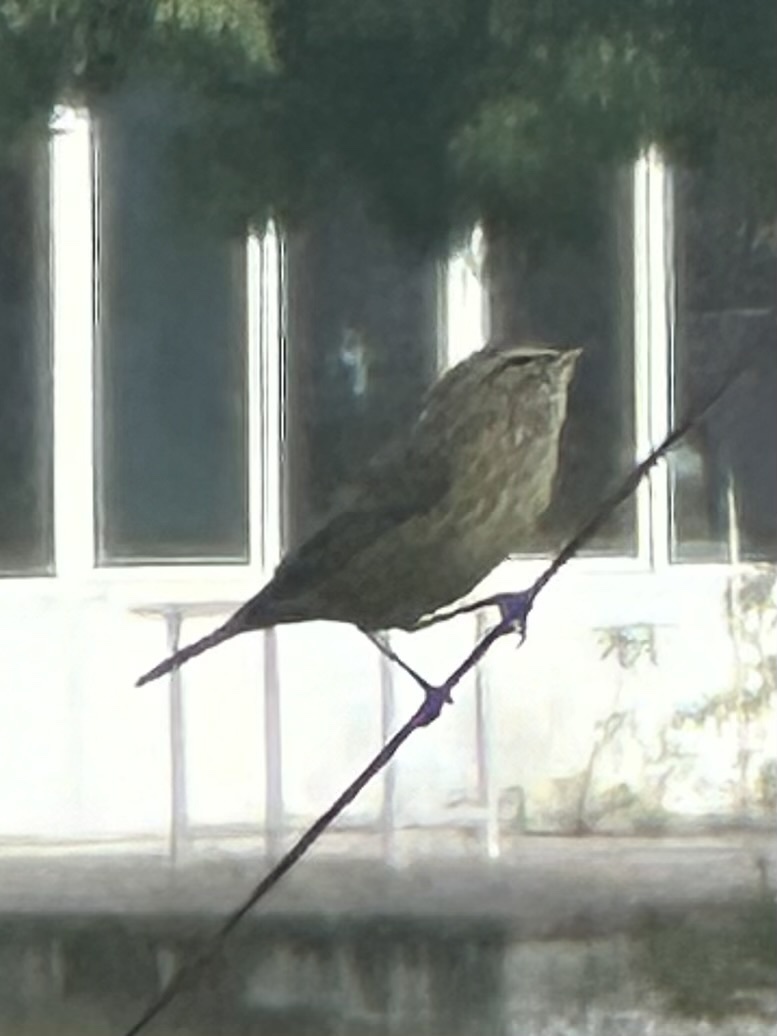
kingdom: Animalia
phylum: Chordata
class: Aves
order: Passeriformes
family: Parulidae
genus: Setophaga
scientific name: Setophaga palmarum
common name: Palm warbler
